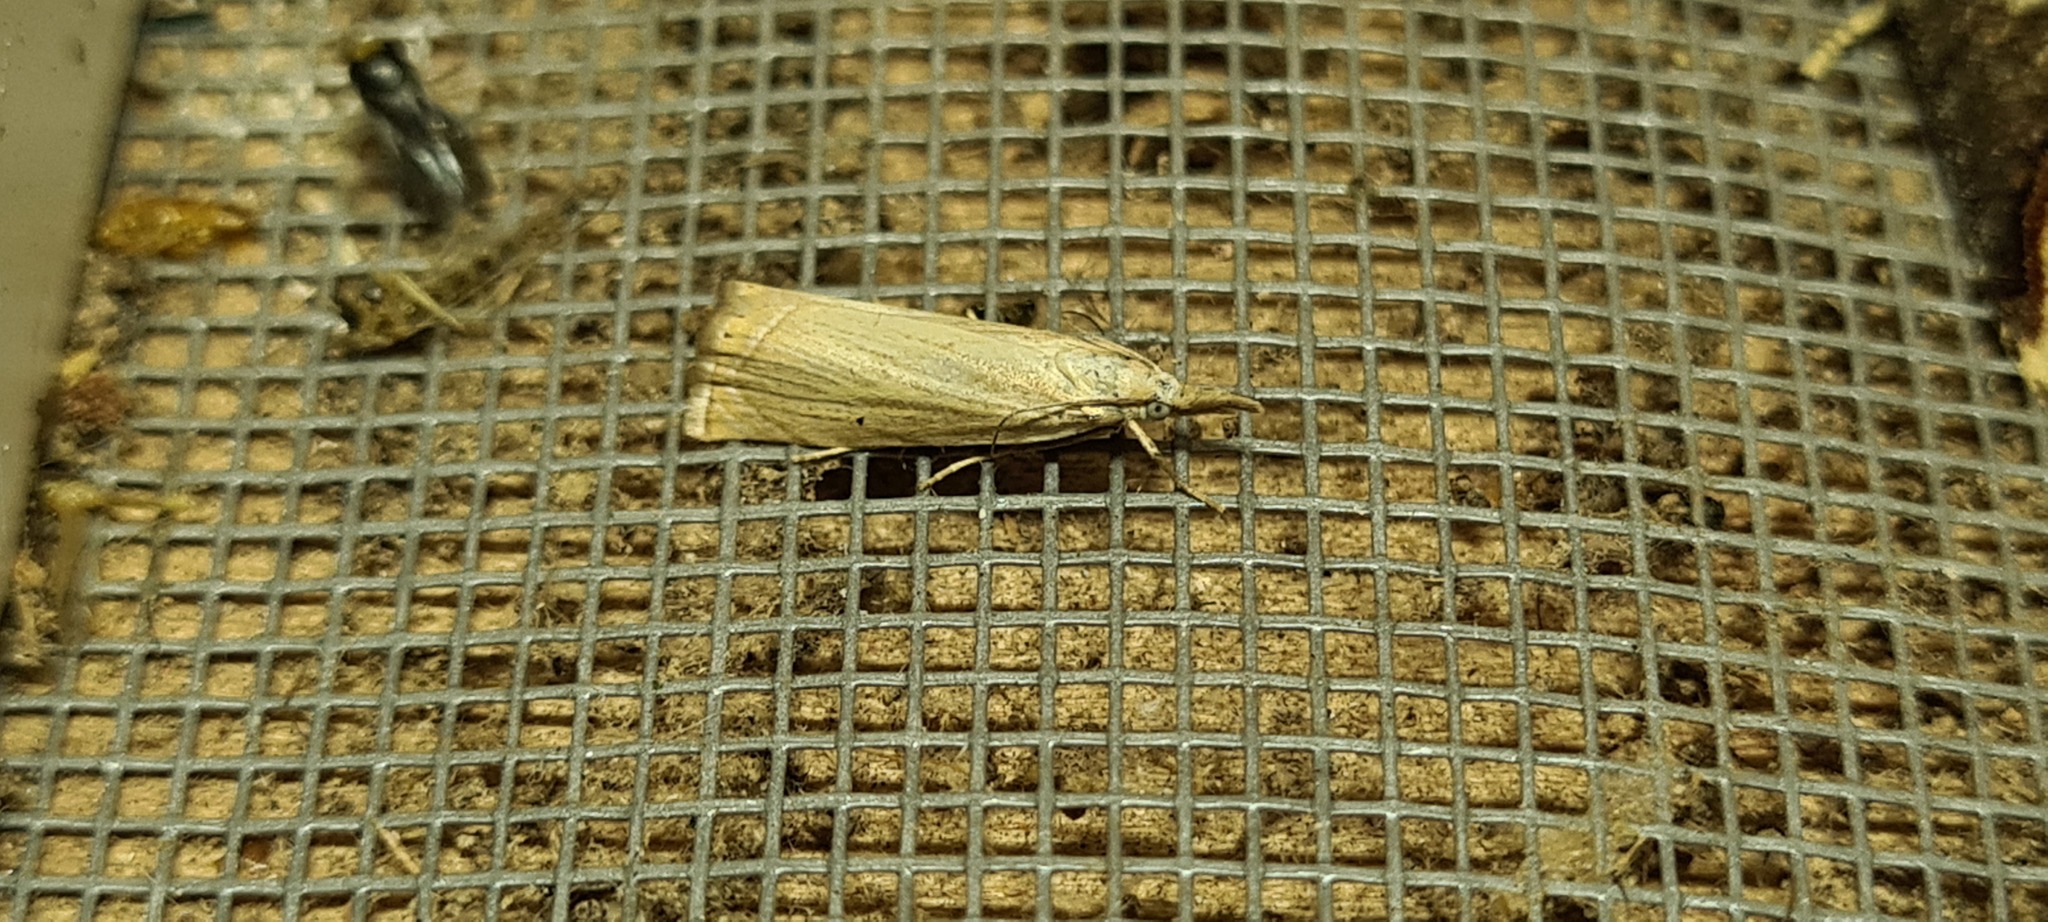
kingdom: Animalia
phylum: Arthropoda
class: Insecta
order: Lepidoptera
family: Crambidae
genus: Chrysoteuchia
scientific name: Chrysoteuchia culmella
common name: Garden grass-veneer
